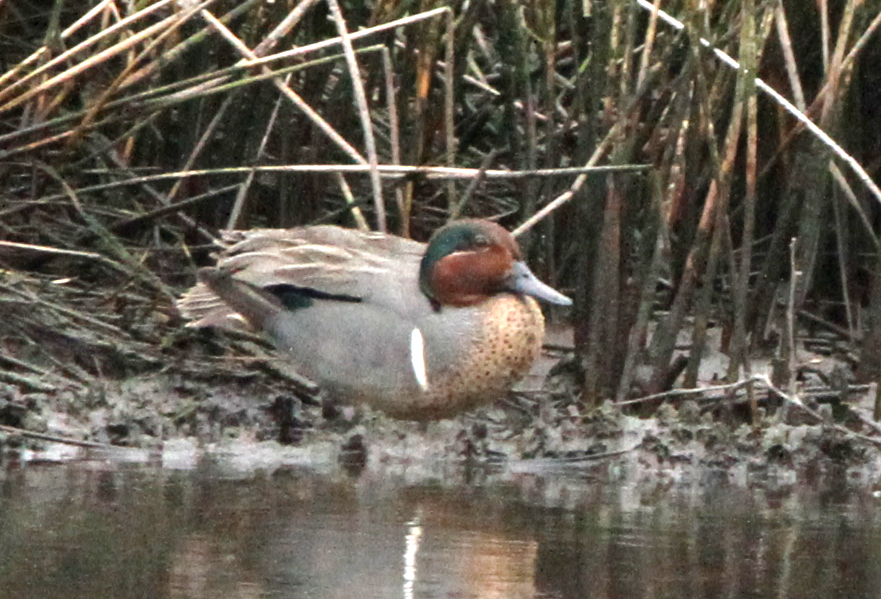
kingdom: Animalia
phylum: Chordata
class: Aves
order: Anseriformes
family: Anatidae
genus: Anas
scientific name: Anas crecca
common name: Eurasian teal
